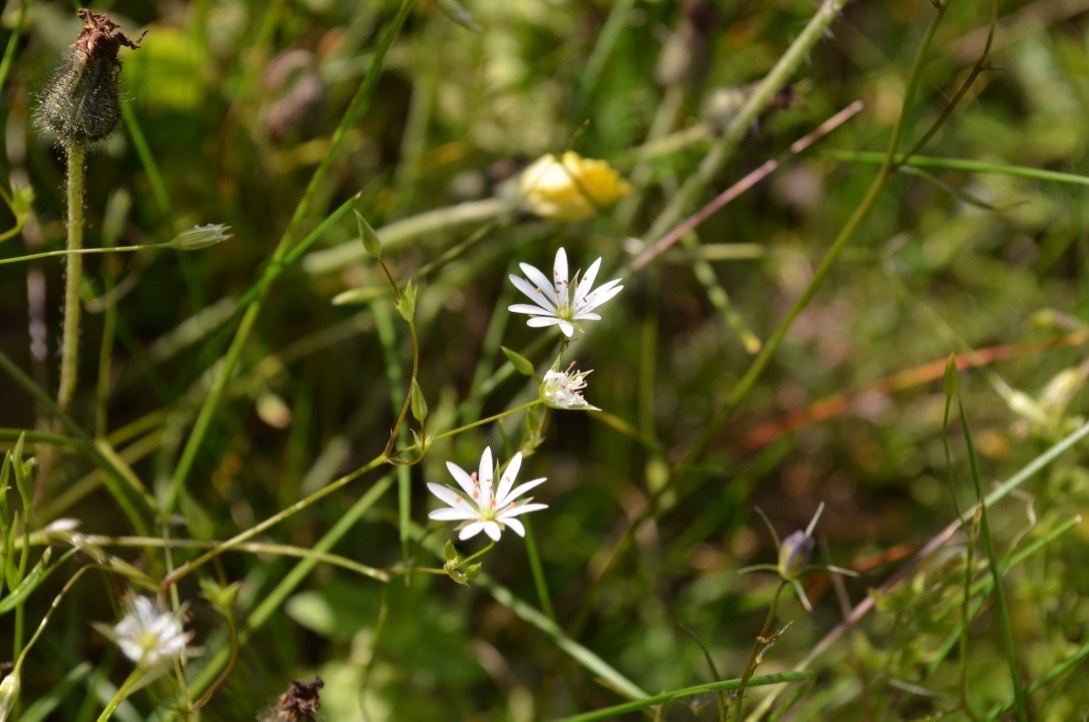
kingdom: Plantae
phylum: Tracheophyta
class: Magnoliopsida
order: Caryophyllales
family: Caryophyllaceae
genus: Stellaria
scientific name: Stellaria graminea
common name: Grass-like starwort
